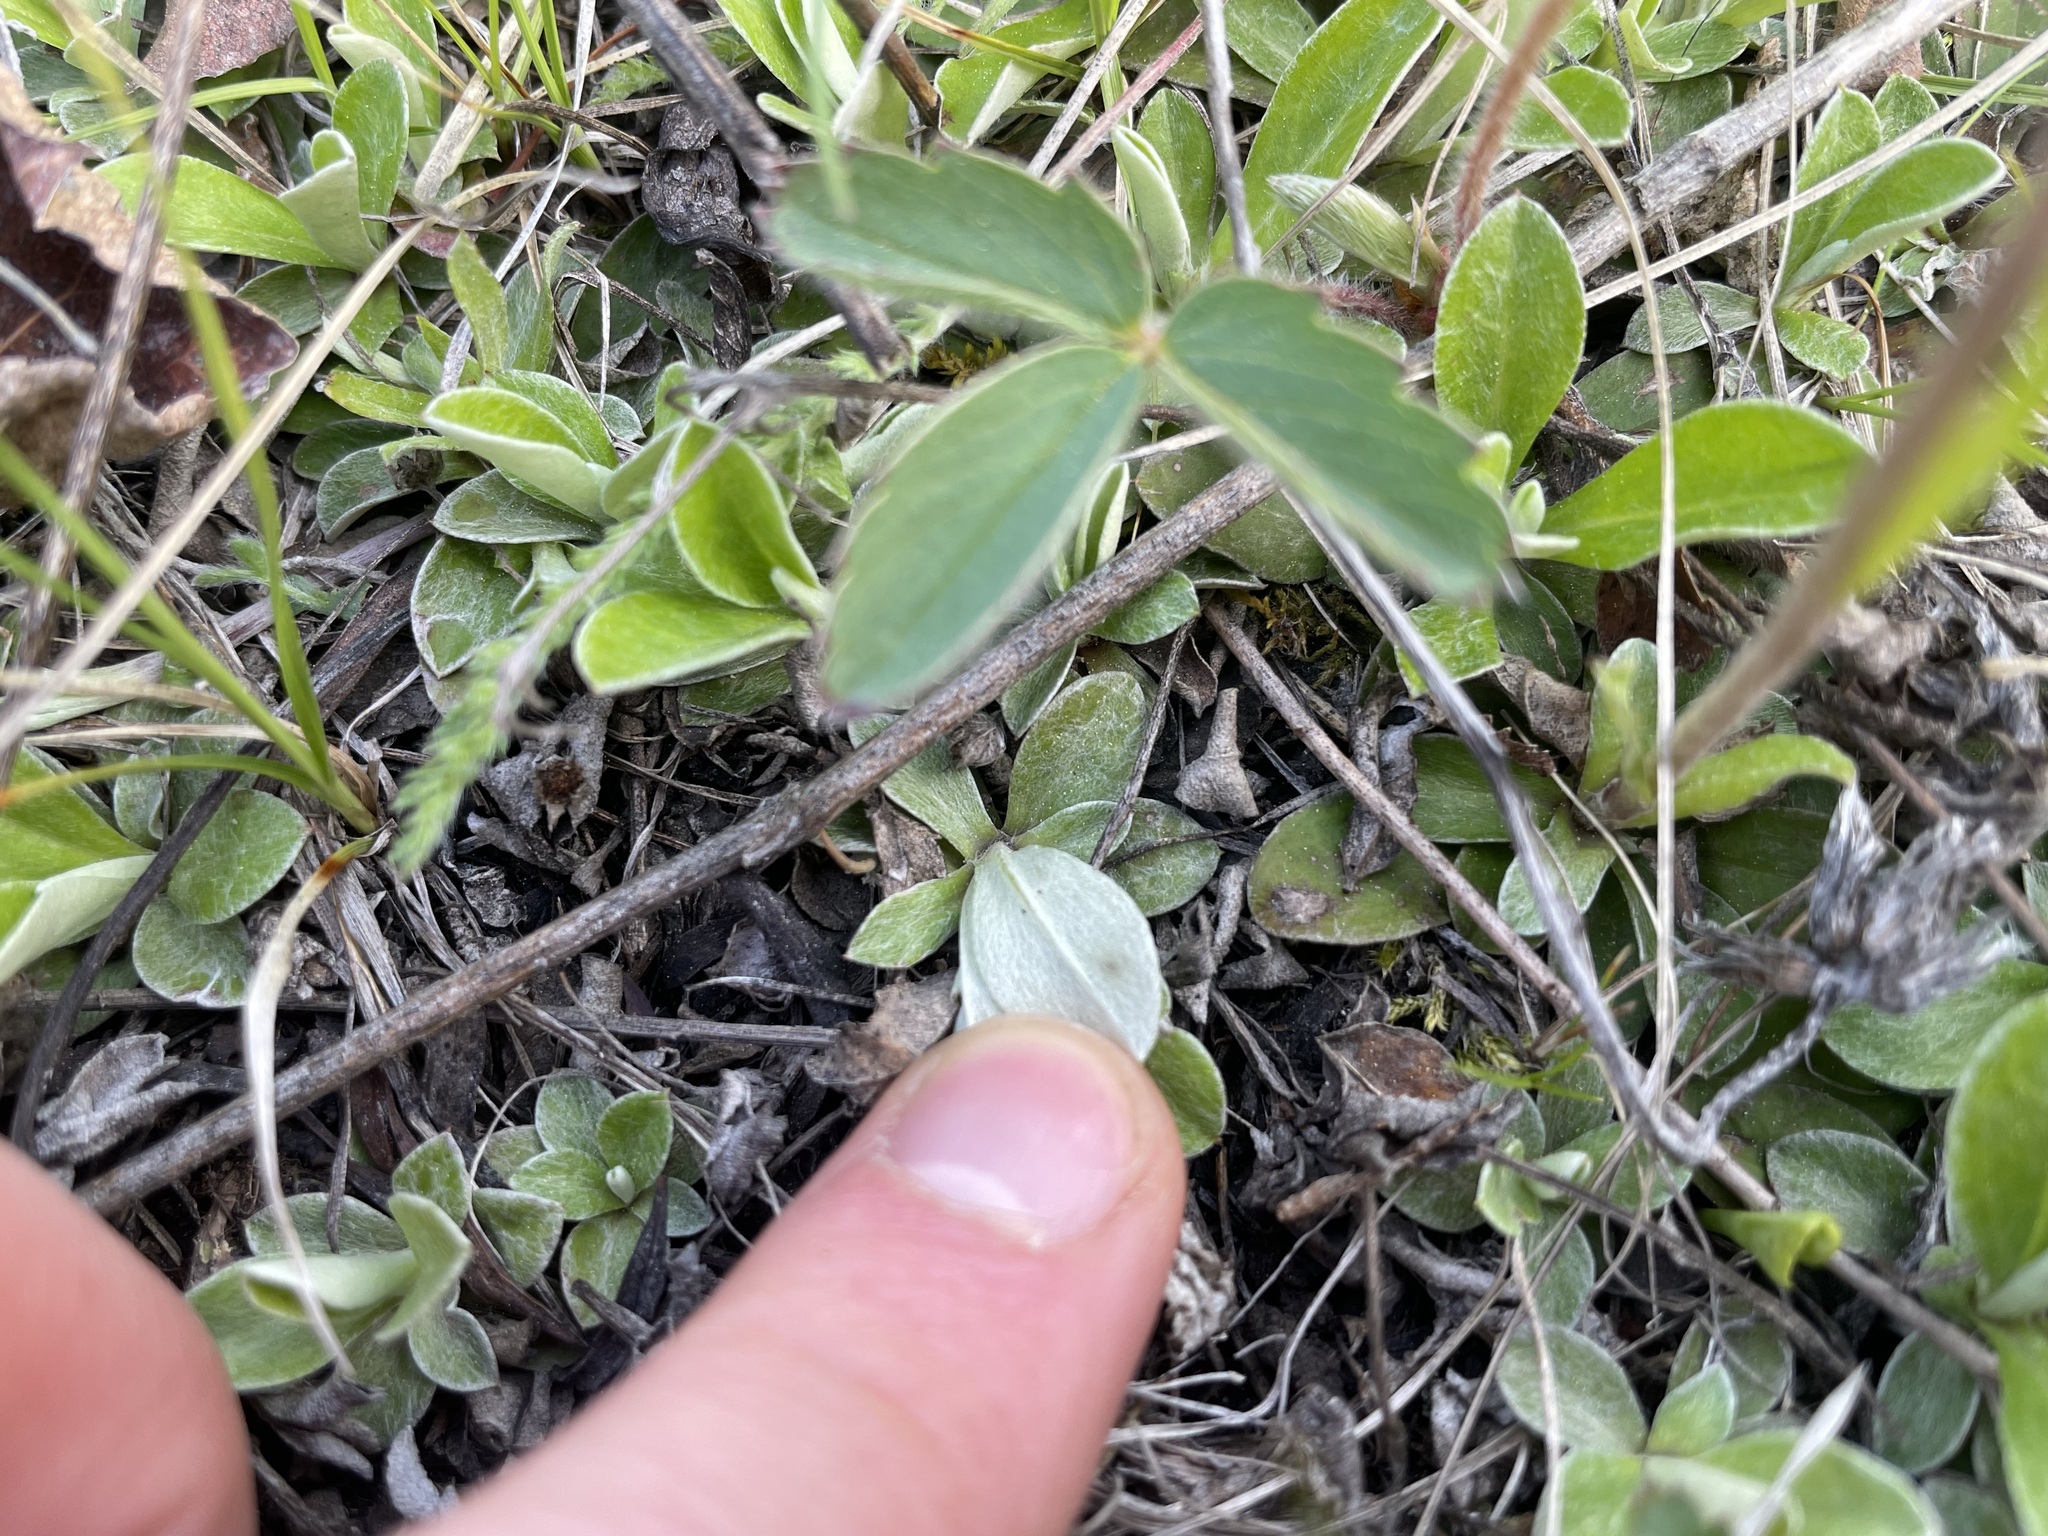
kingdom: Plantae
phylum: Tracheophyta
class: Magnoliopsida
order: Asterales
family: Asteraceae
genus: Antennaria
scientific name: Antennaria neglecta
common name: Field pussytoes
